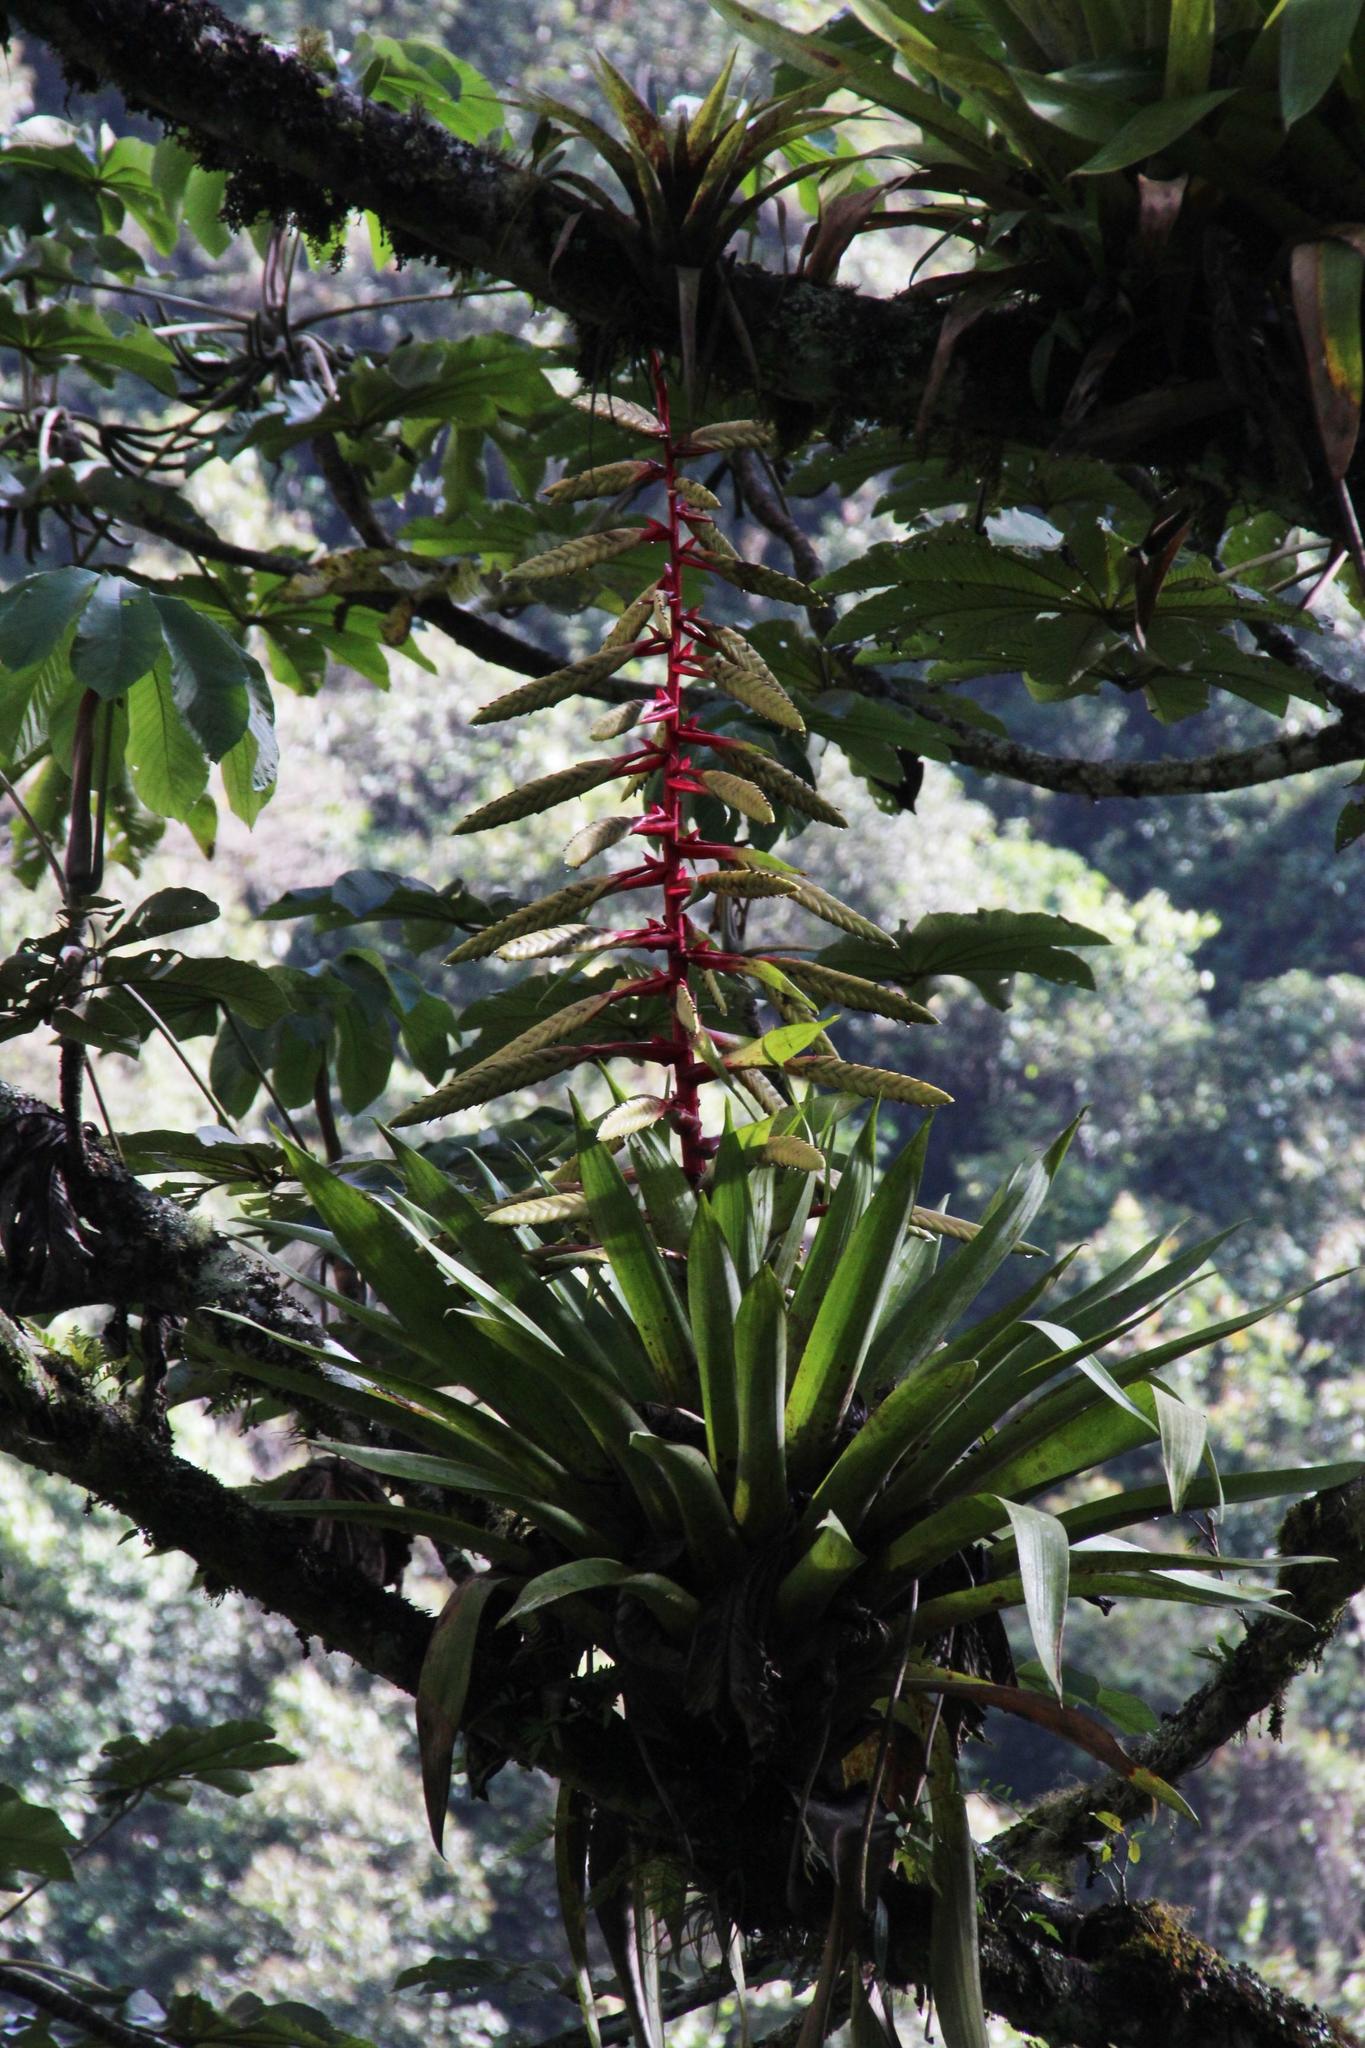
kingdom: Plantae
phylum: Tracheophyta
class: Liliopsida
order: Poales
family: Bromeliaceae
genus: Tillandsia
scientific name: Tillandsia fendleri
